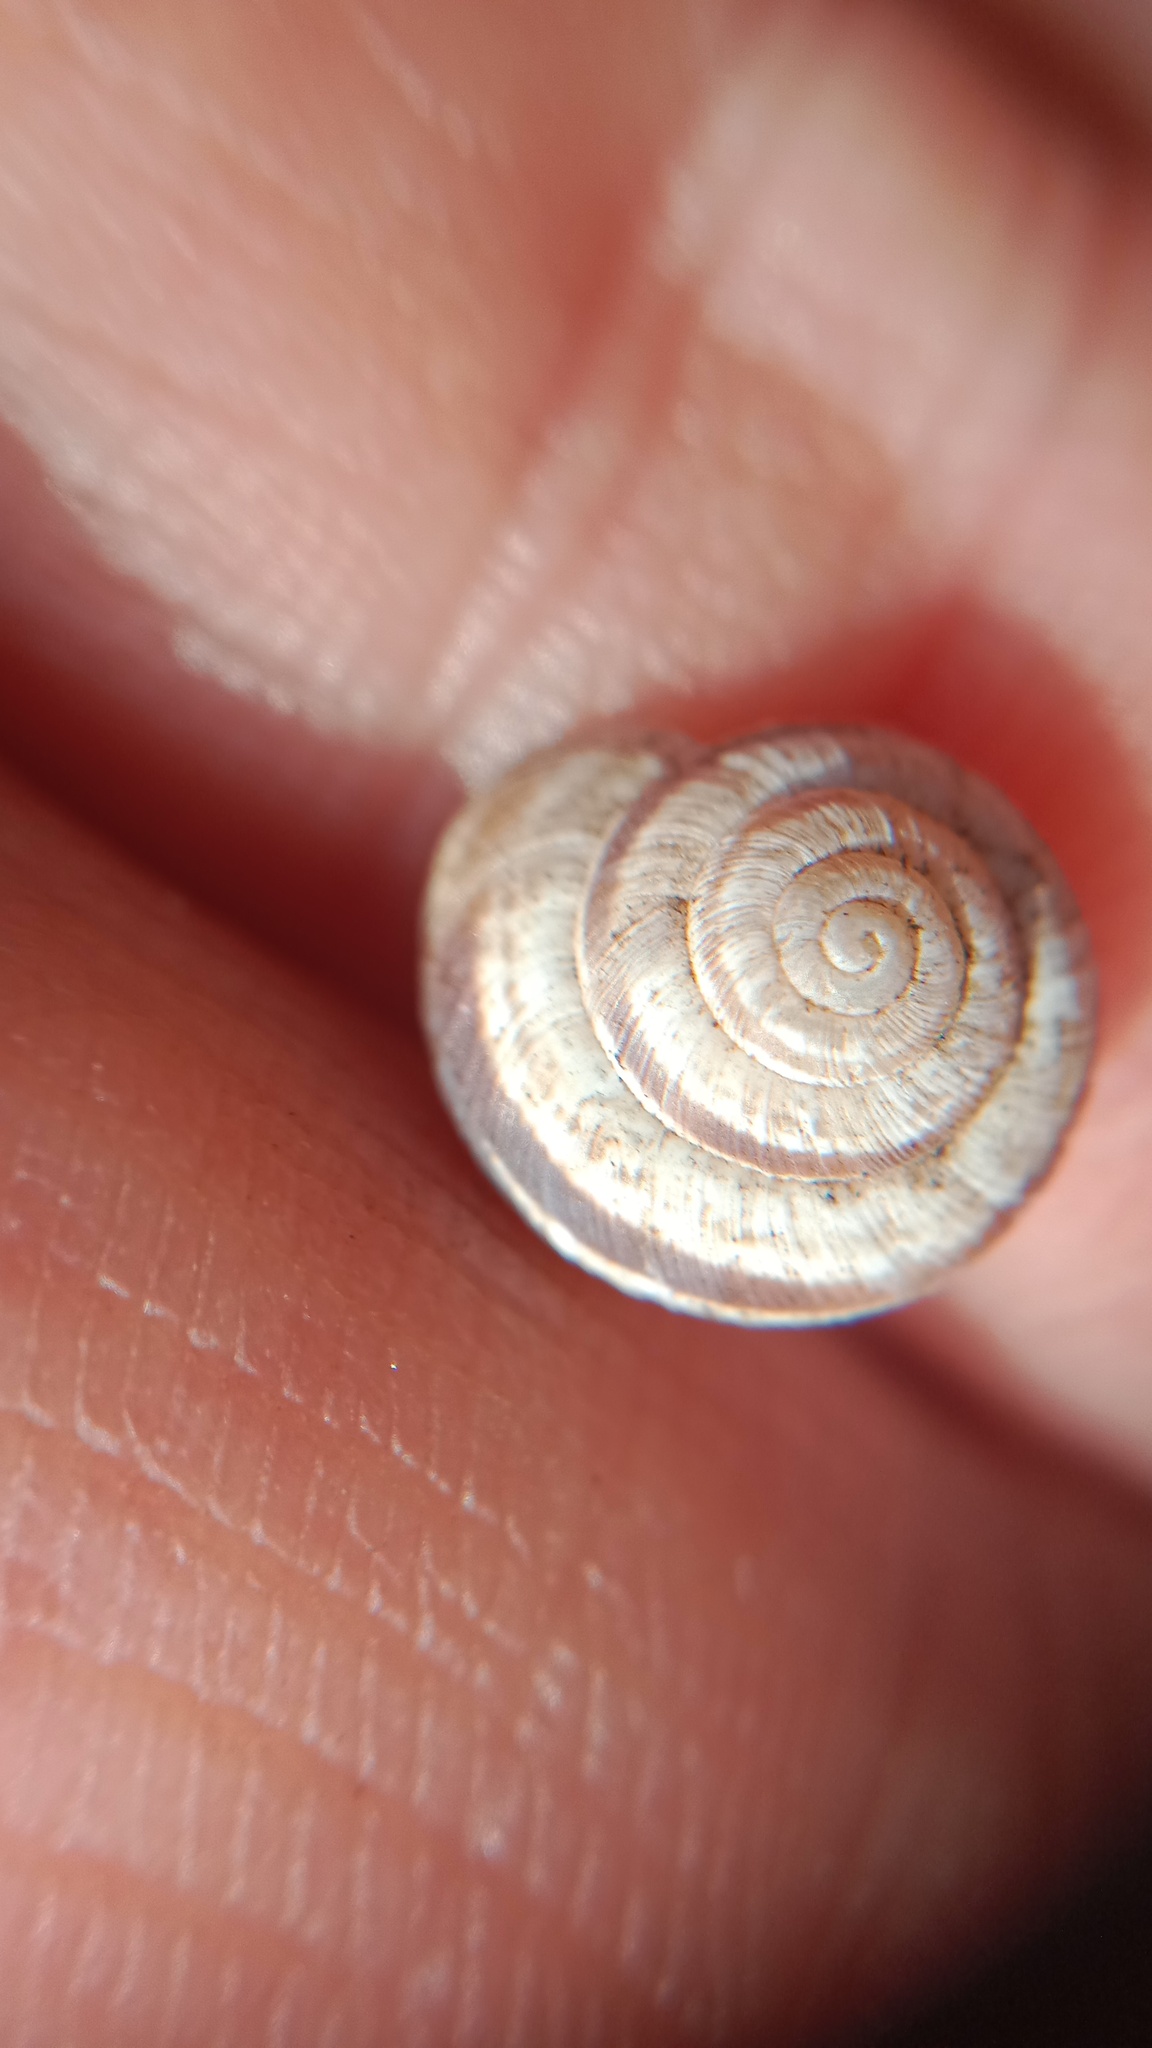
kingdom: Animalia
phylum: Mollusca
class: Gastropoda
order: Stylommatophora
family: Geomitridae
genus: Helicopsis
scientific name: Helicopsis lunulata
